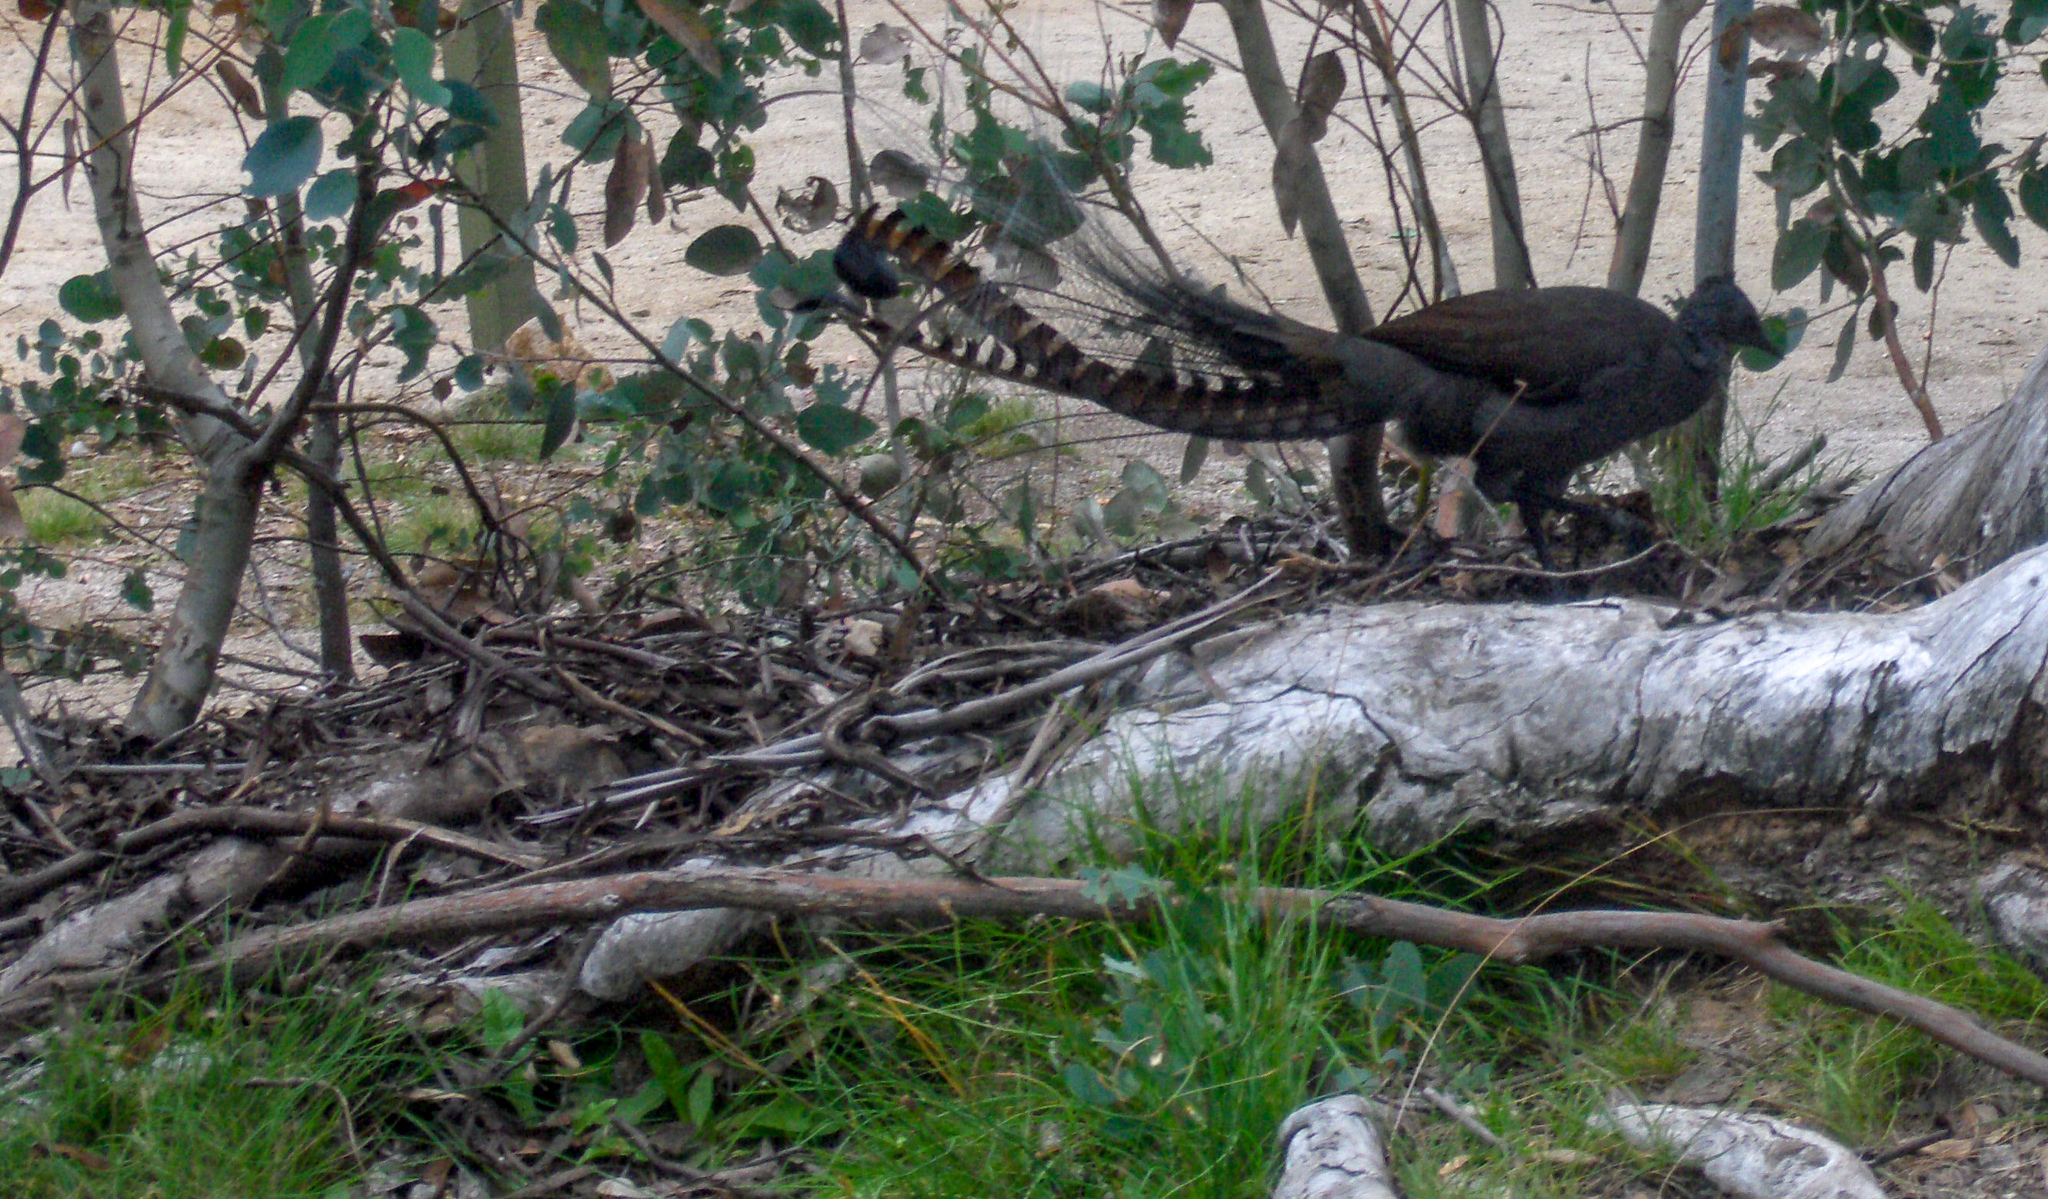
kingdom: Animalia
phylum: Chordata
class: Aves
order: Passeriformes
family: Menuridae
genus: Menura
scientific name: Menura novaehollandiae
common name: Superb lyrebird
